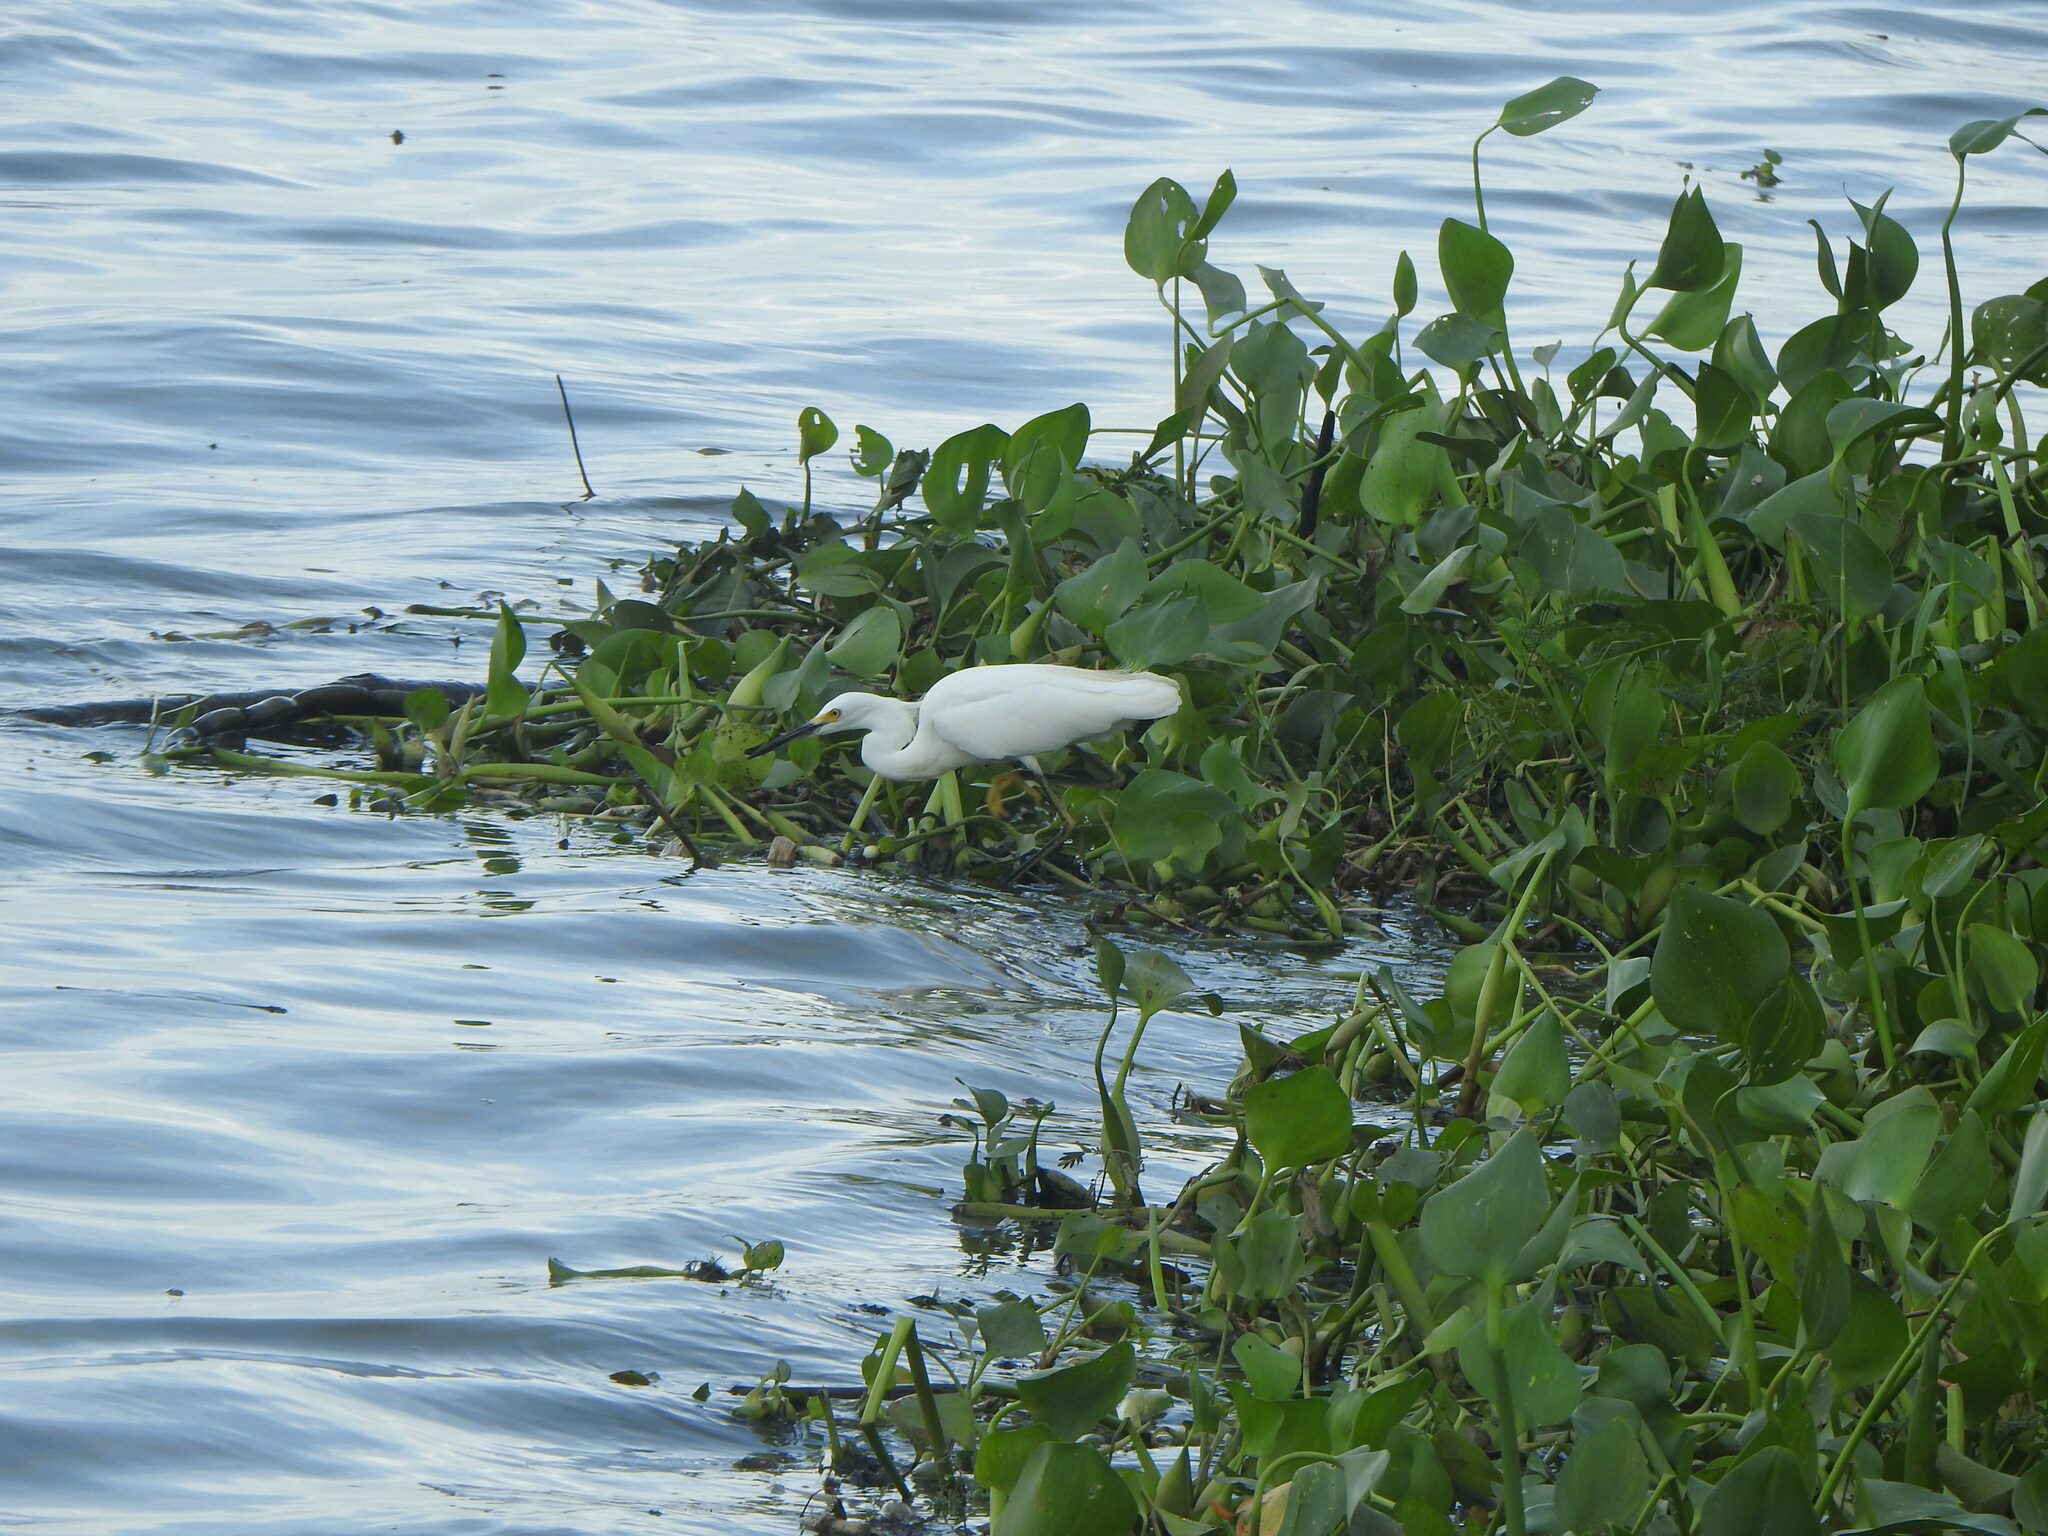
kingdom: Animalia
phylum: Chordata
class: Aves
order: Pelecaniformes
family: Ardeidae
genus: Egretta
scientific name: Egretta thula
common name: Snowy egret
